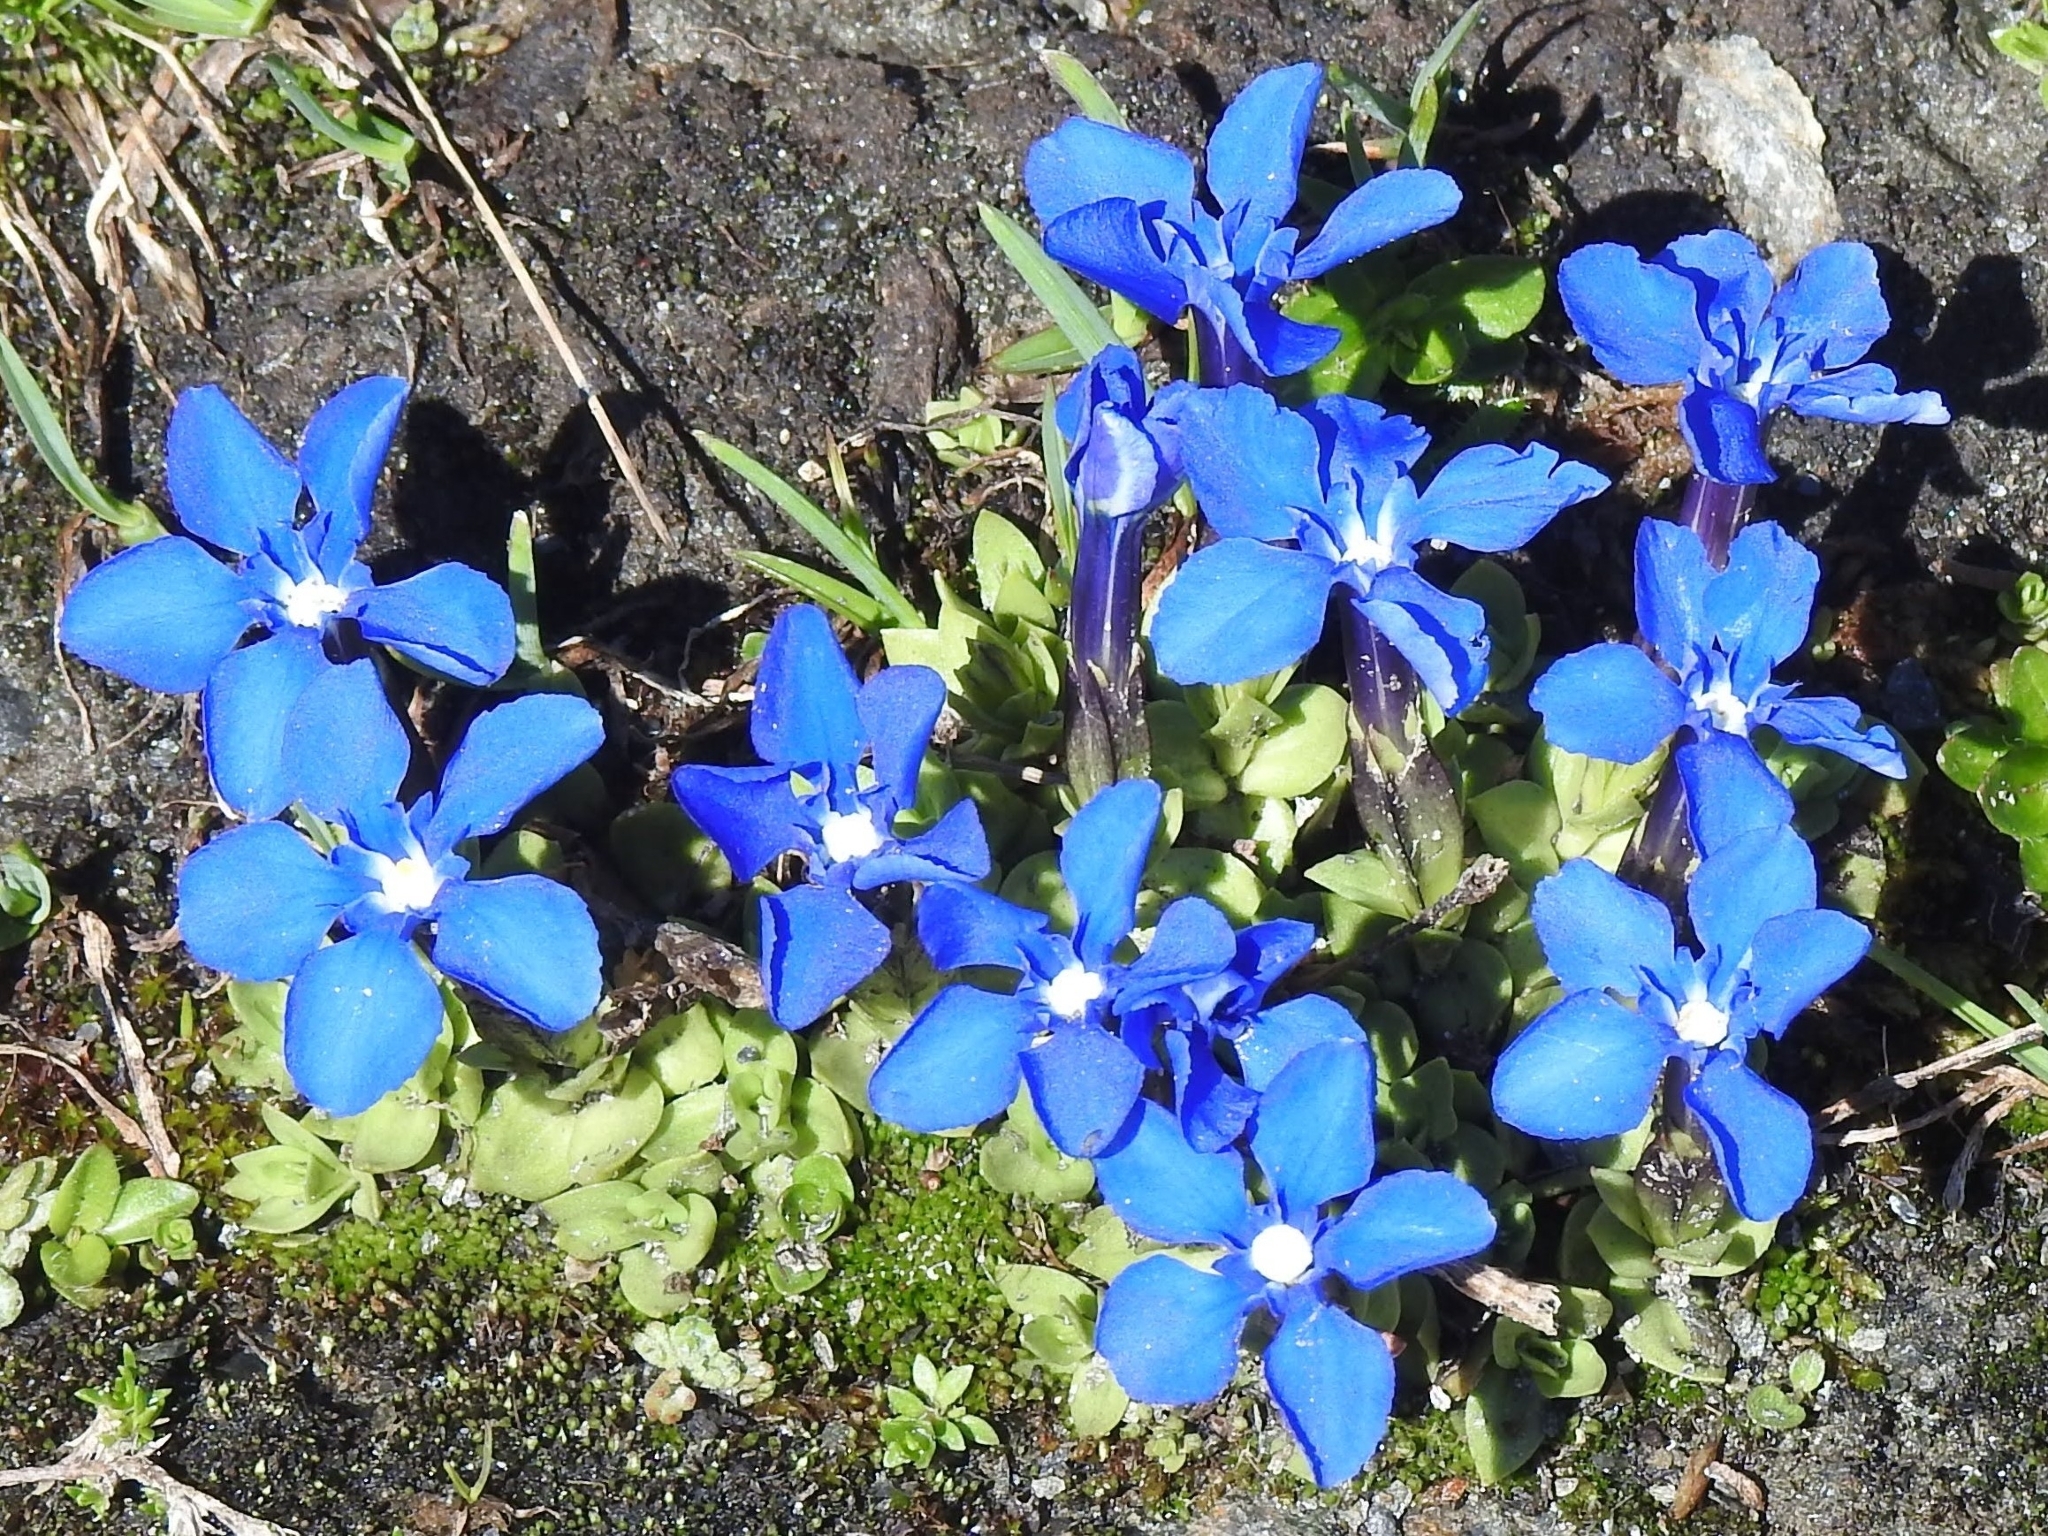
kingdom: Plantae
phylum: Tracheophyta
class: Magnoliopsida
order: Gentianales
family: Gentianaceae
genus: Gentiana
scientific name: Gentiana brachyphylla
